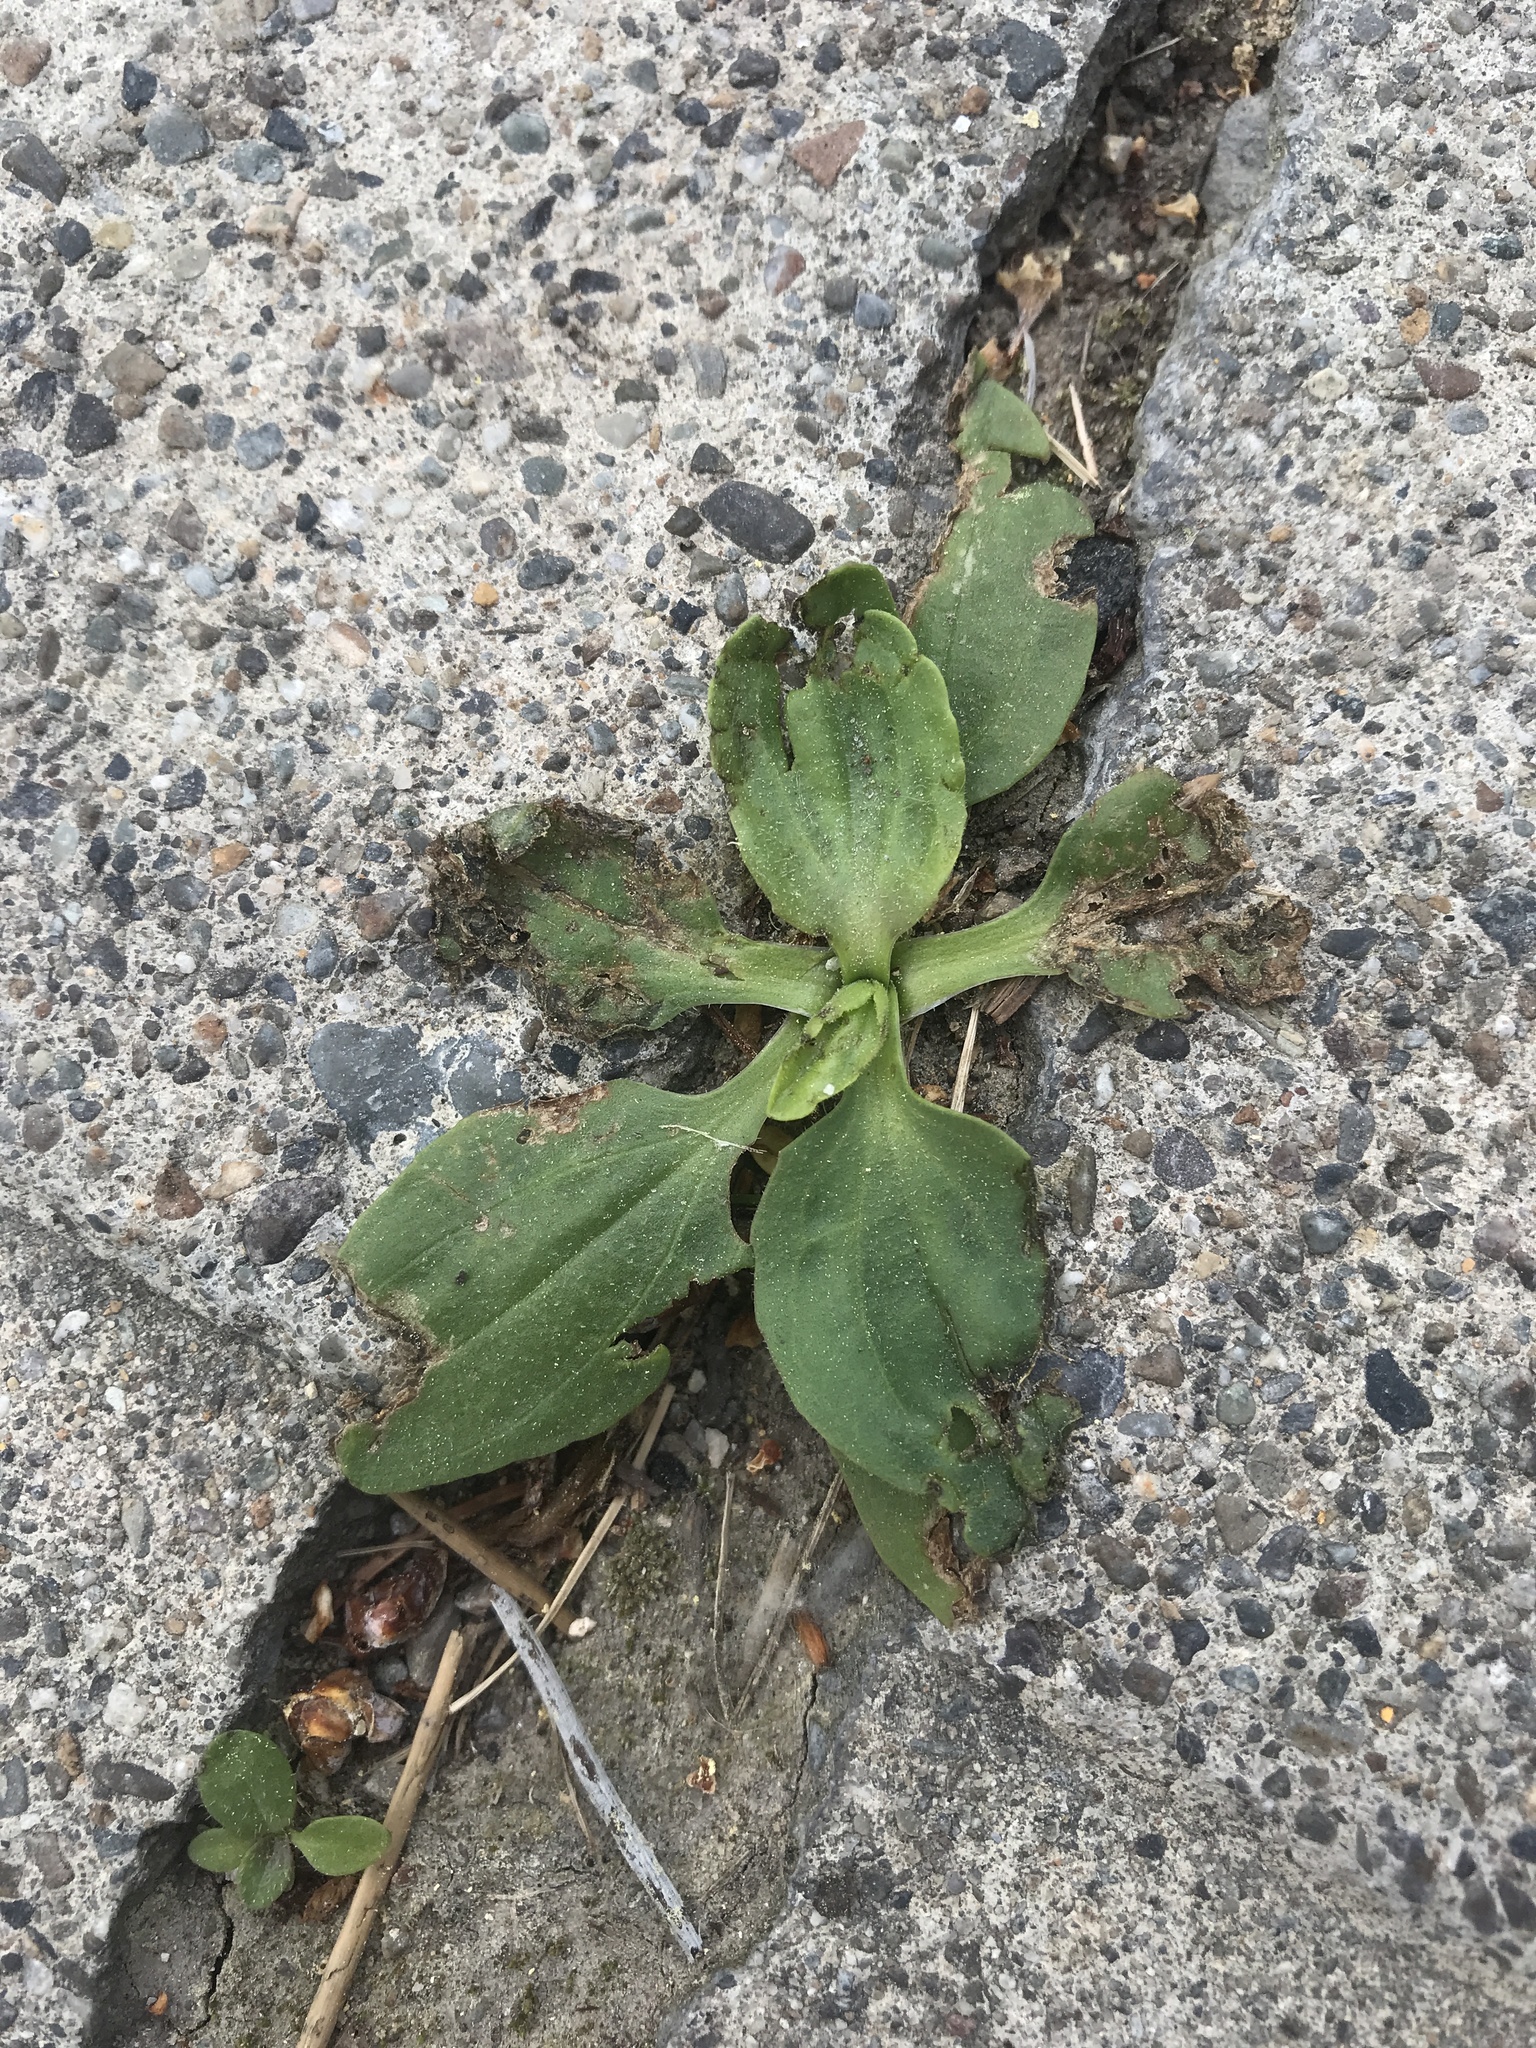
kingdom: Plantae
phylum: Tracheophyta
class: Magnoliopsida
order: Lamiales
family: Plantaginaceae
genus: Plantago
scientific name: Plantago major
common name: Common plantain
